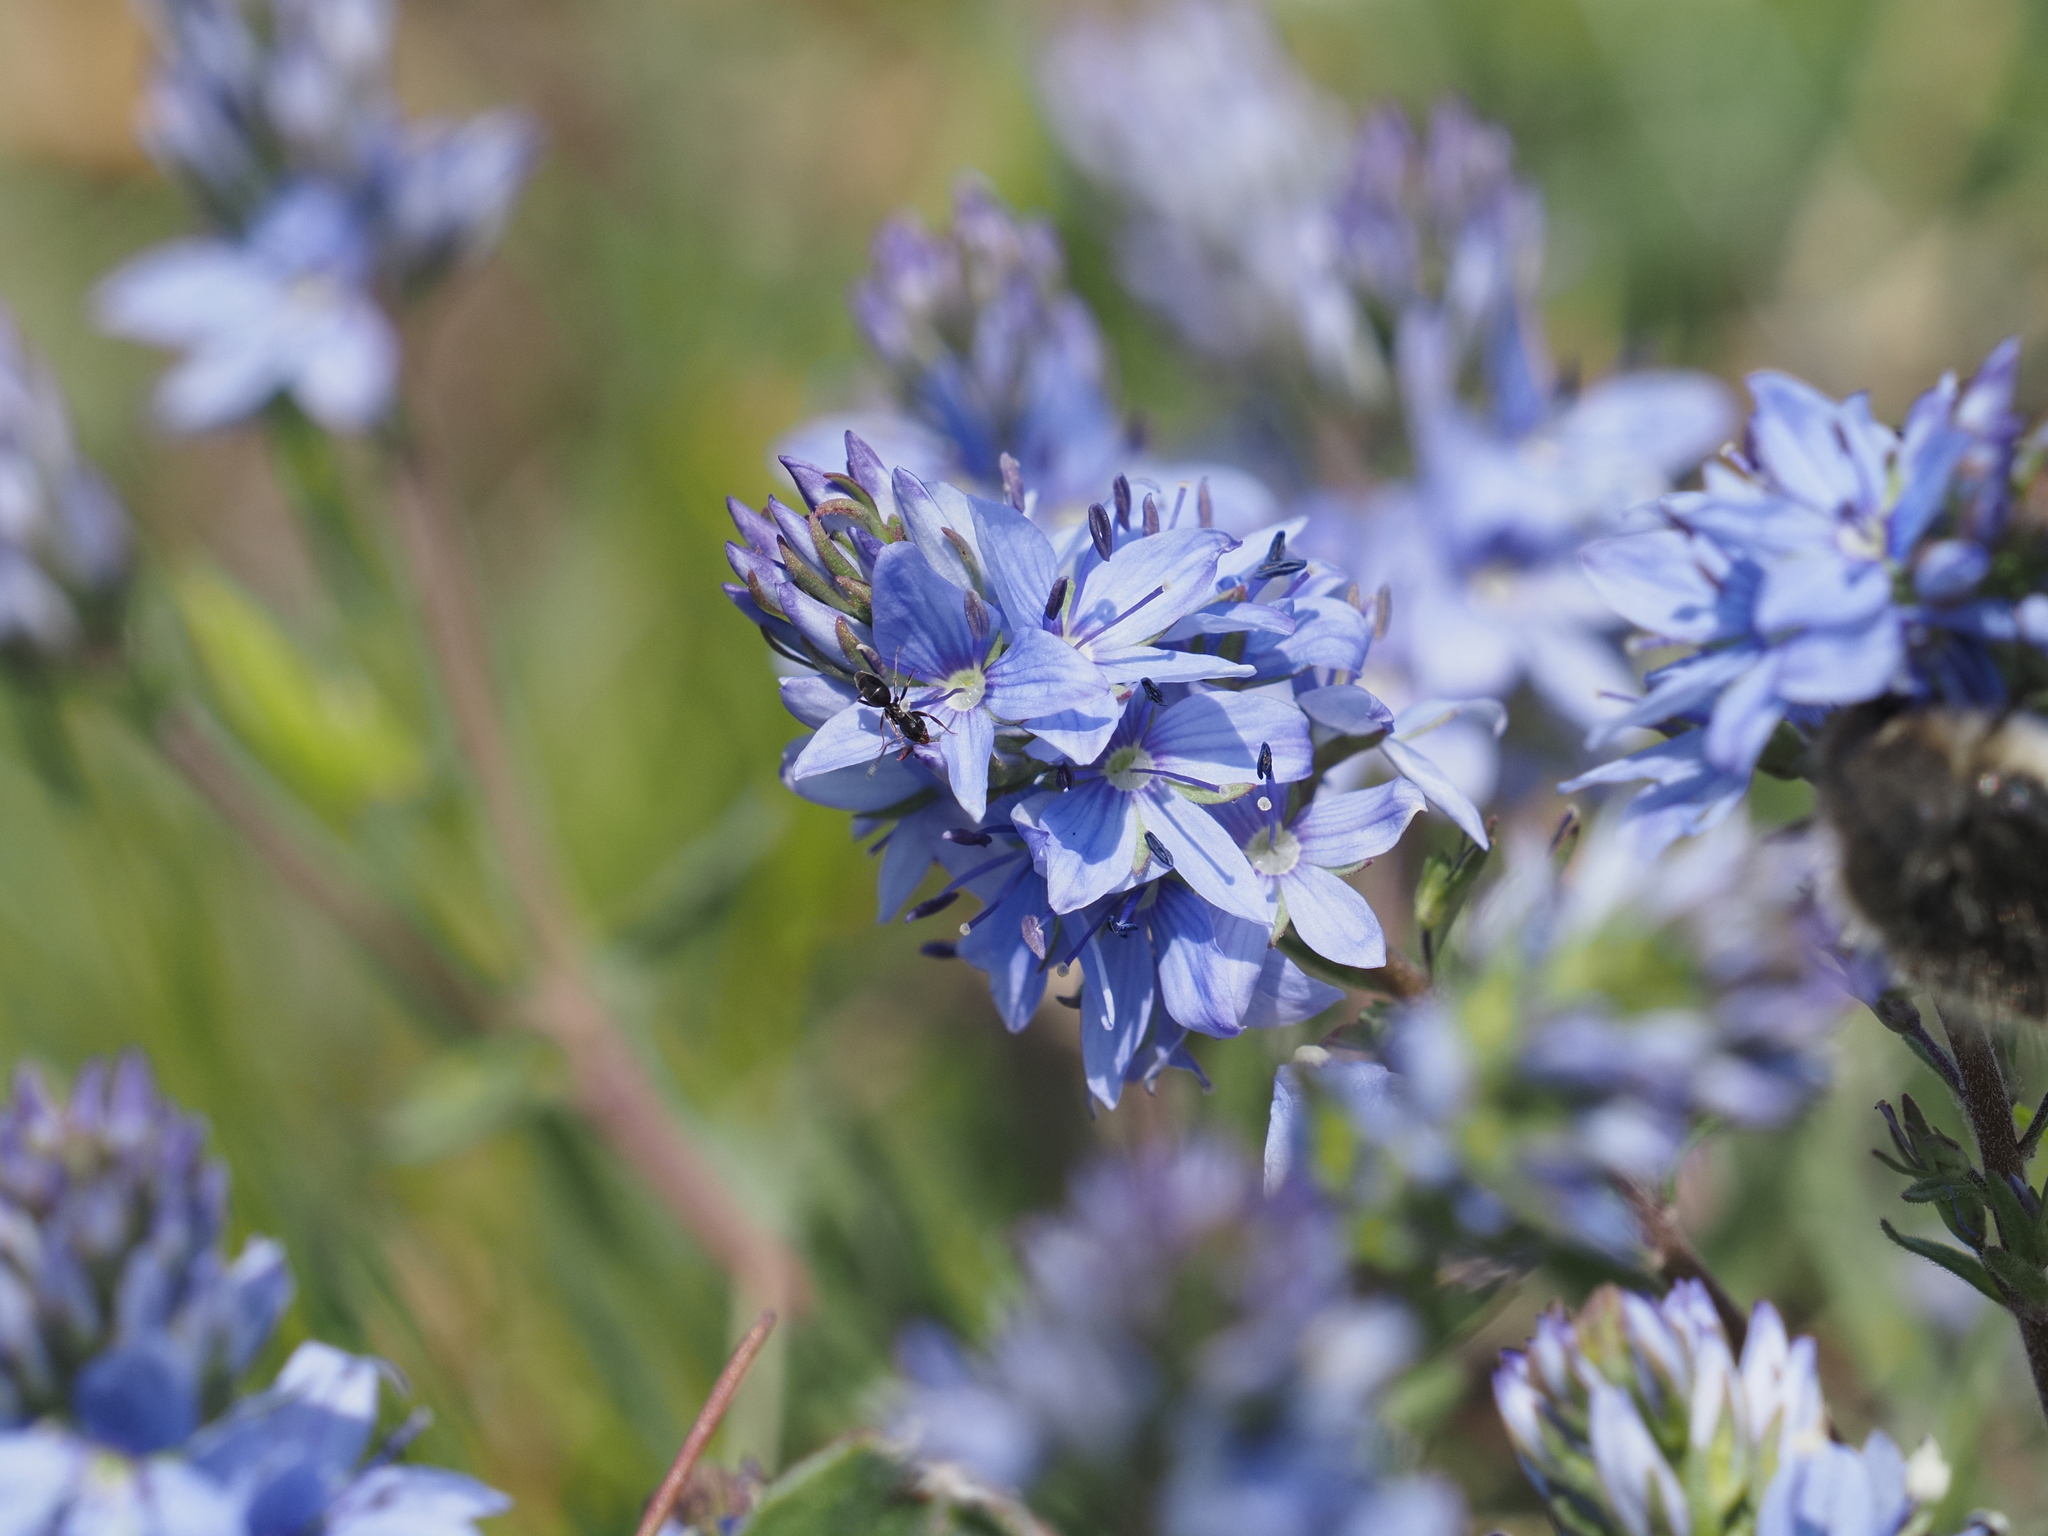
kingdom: Plantae
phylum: Tracheophyta
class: Magnoliopsida
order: Lamiales
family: Plantaginaceae
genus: Veronica
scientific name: Veronica prostrata
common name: Prostrate speedwell
